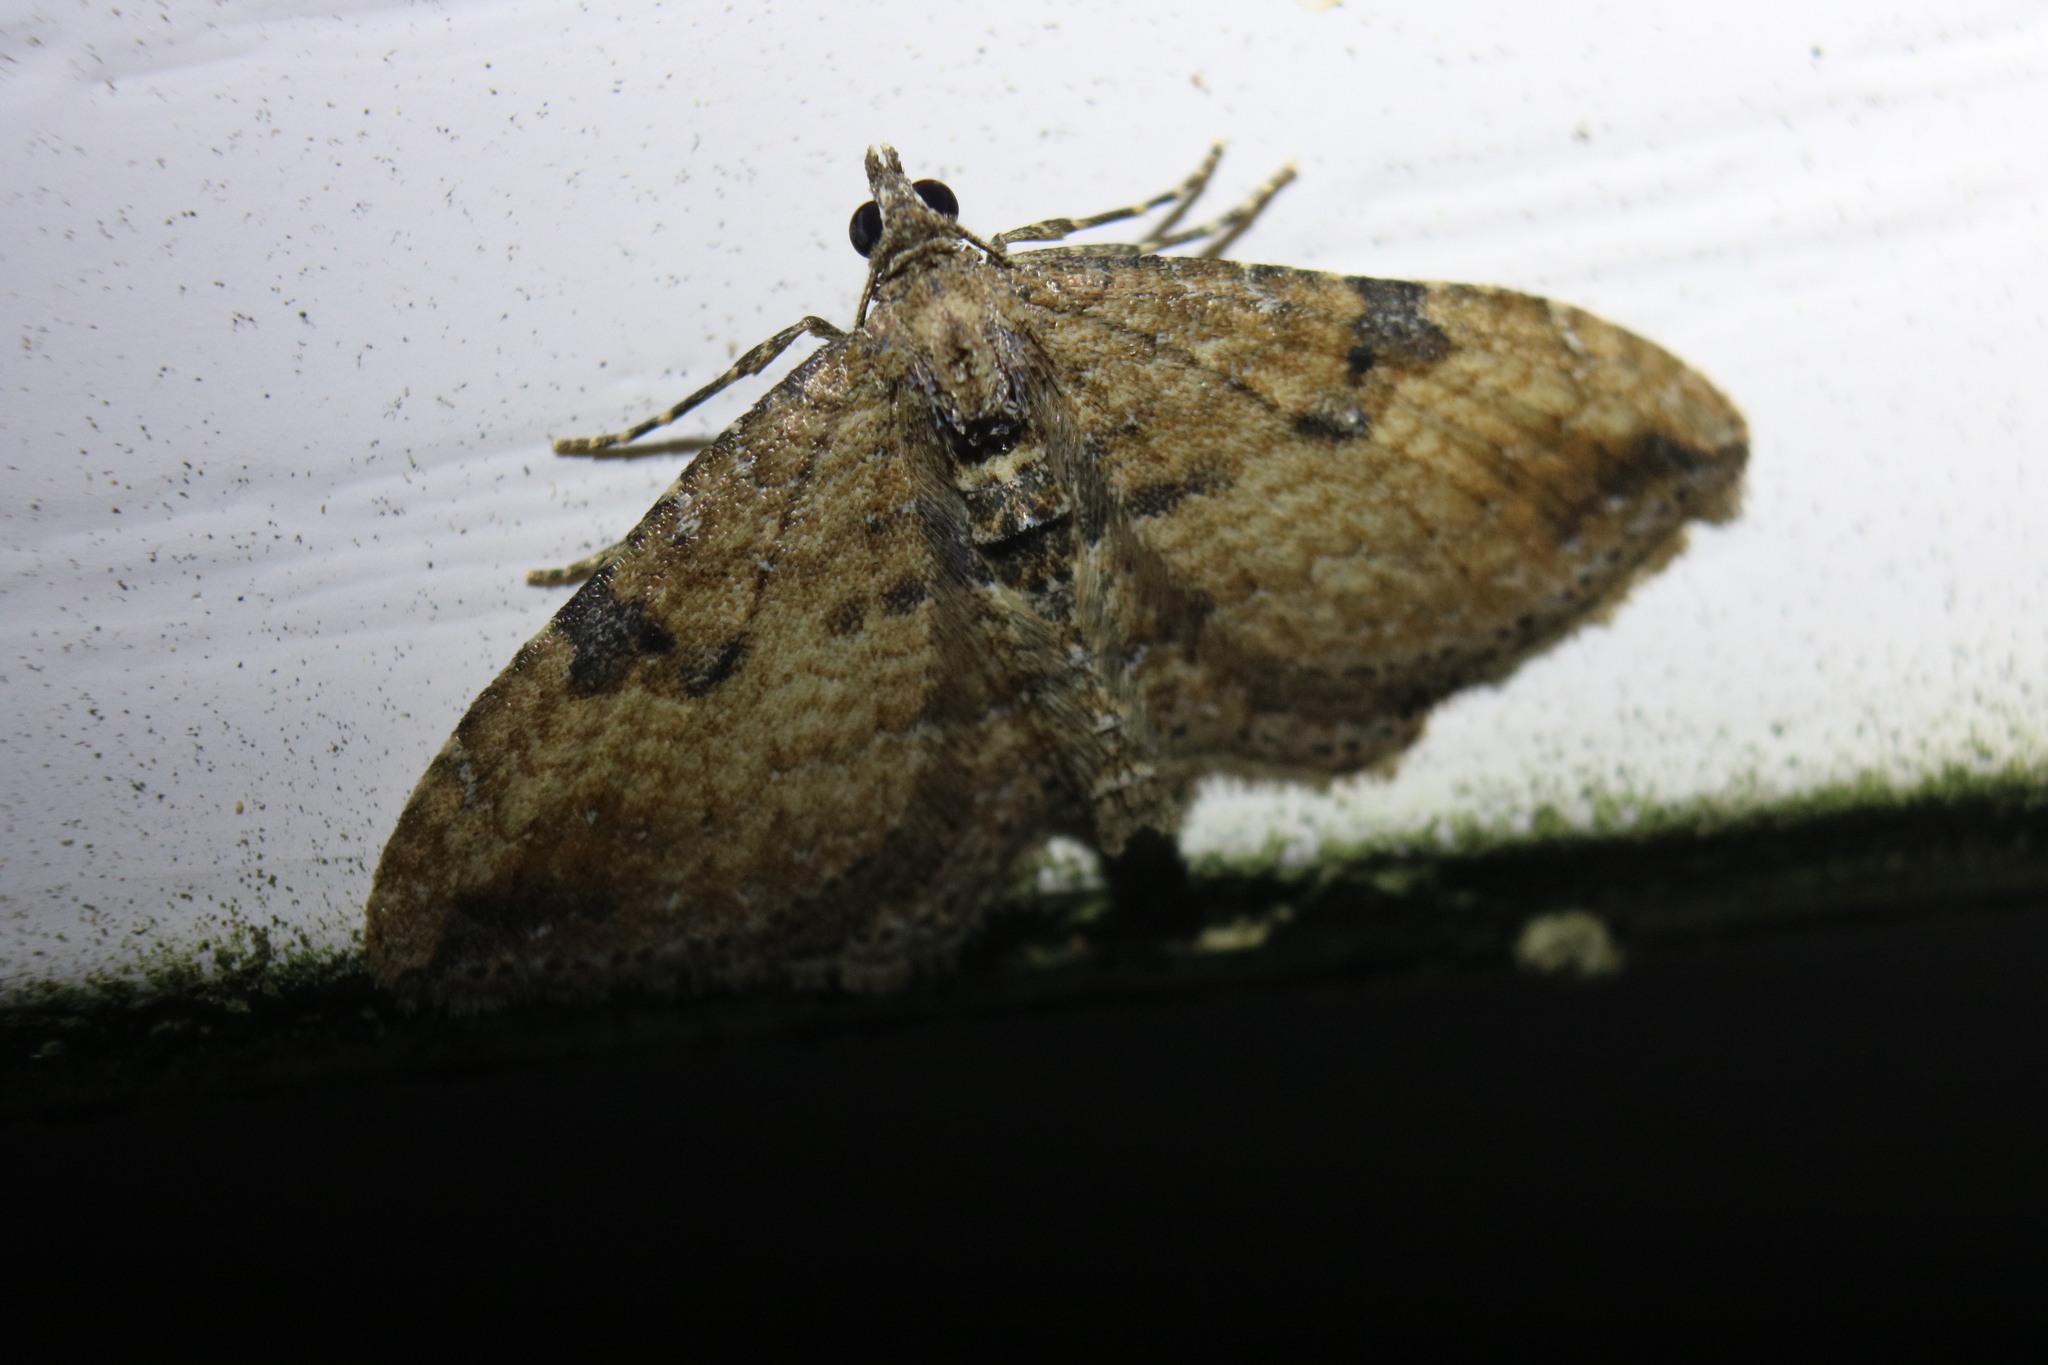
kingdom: Animalia
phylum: Arthropoda
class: Insecta
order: Lepidoptera
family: Geometridae
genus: Orthonama
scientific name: Orthonama obstipata
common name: The gem
